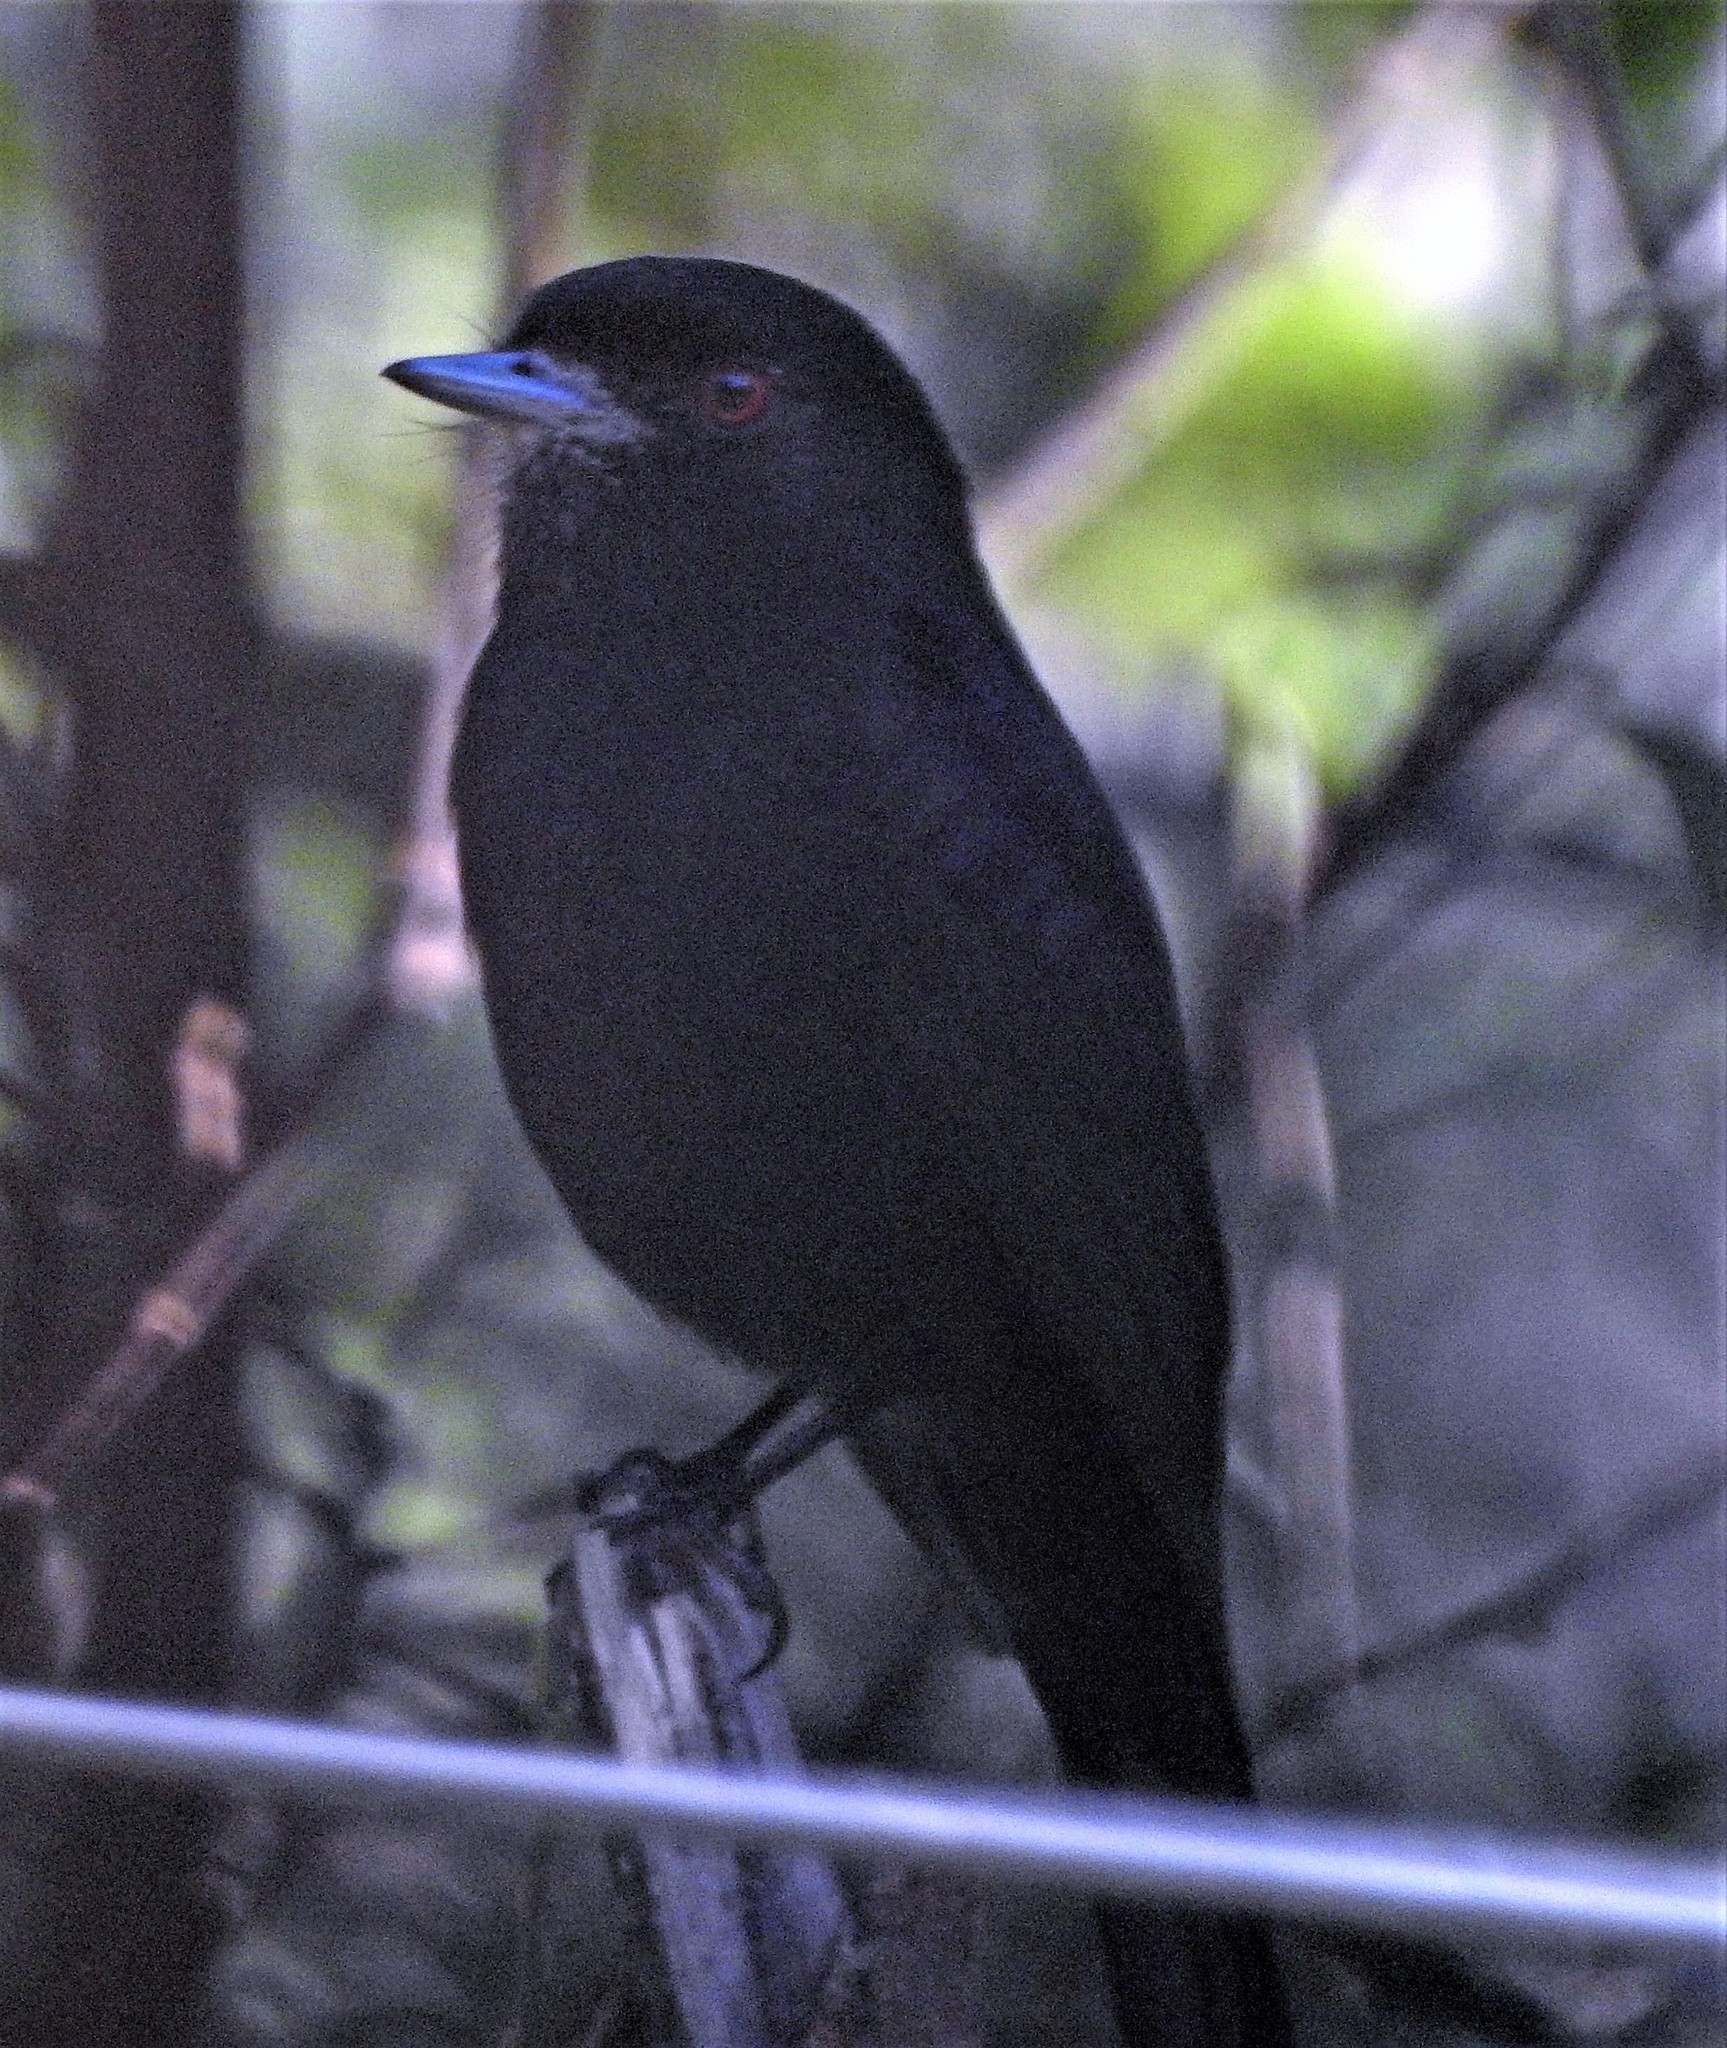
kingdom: Animalia
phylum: Chordata
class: Aves
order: Passeriformes
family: Tyrannidae
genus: Knipolegus
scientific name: Knipolegus cyanirostris
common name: Blue-billed black tyrant
